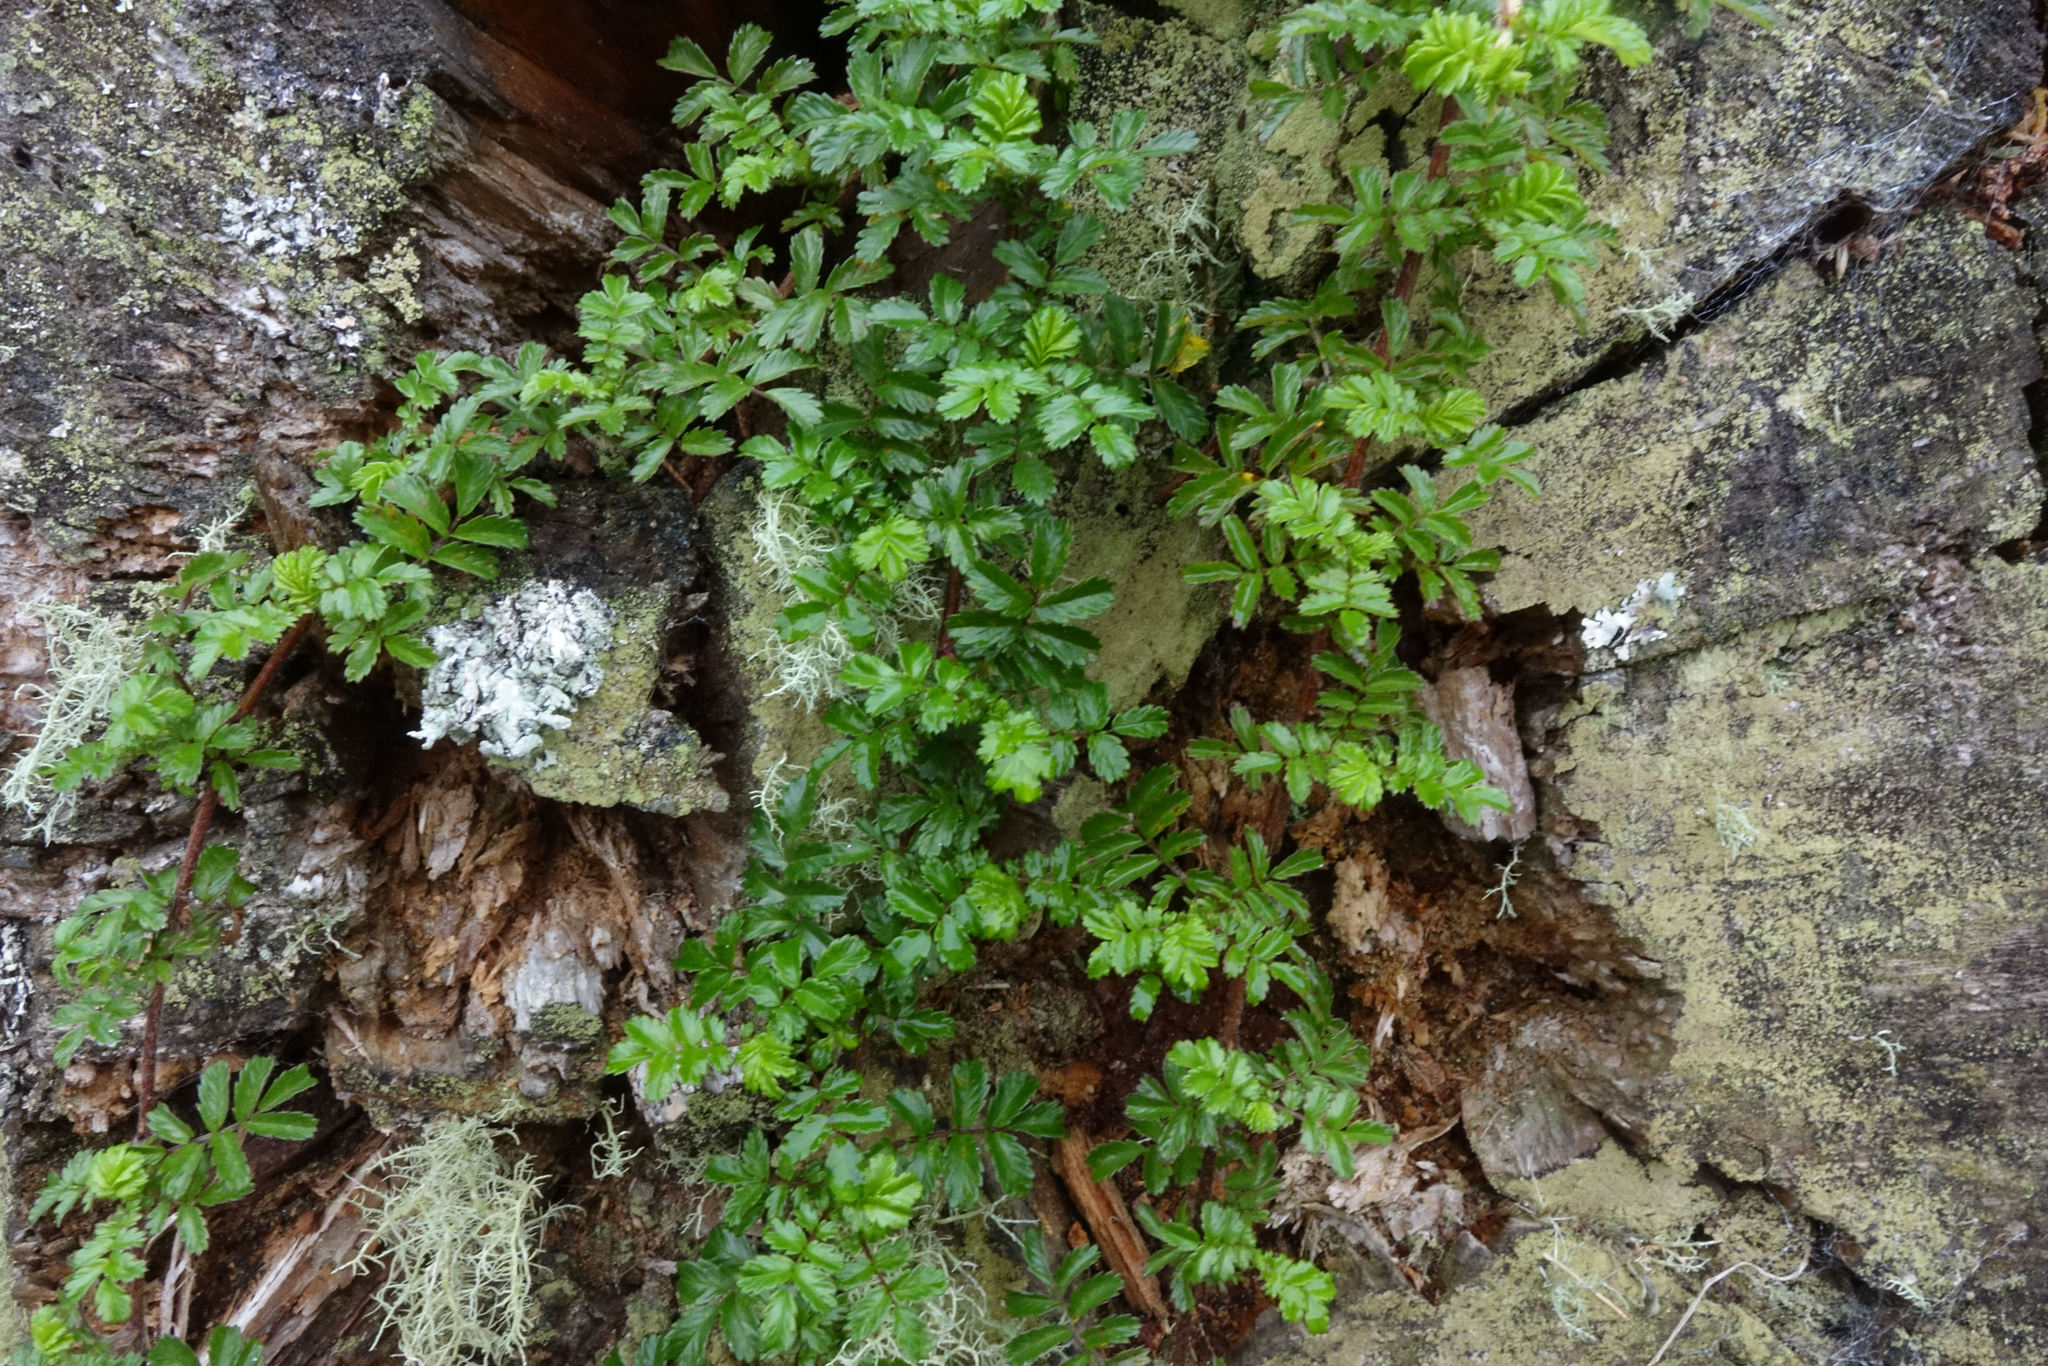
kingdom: Plantae
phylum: Tracheophyta
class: Magnoliopsida
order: Rosales
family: Rosaceae
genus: Acaena
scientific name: Acaena novae-zelandiae
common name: Pirri-pirri-bur
